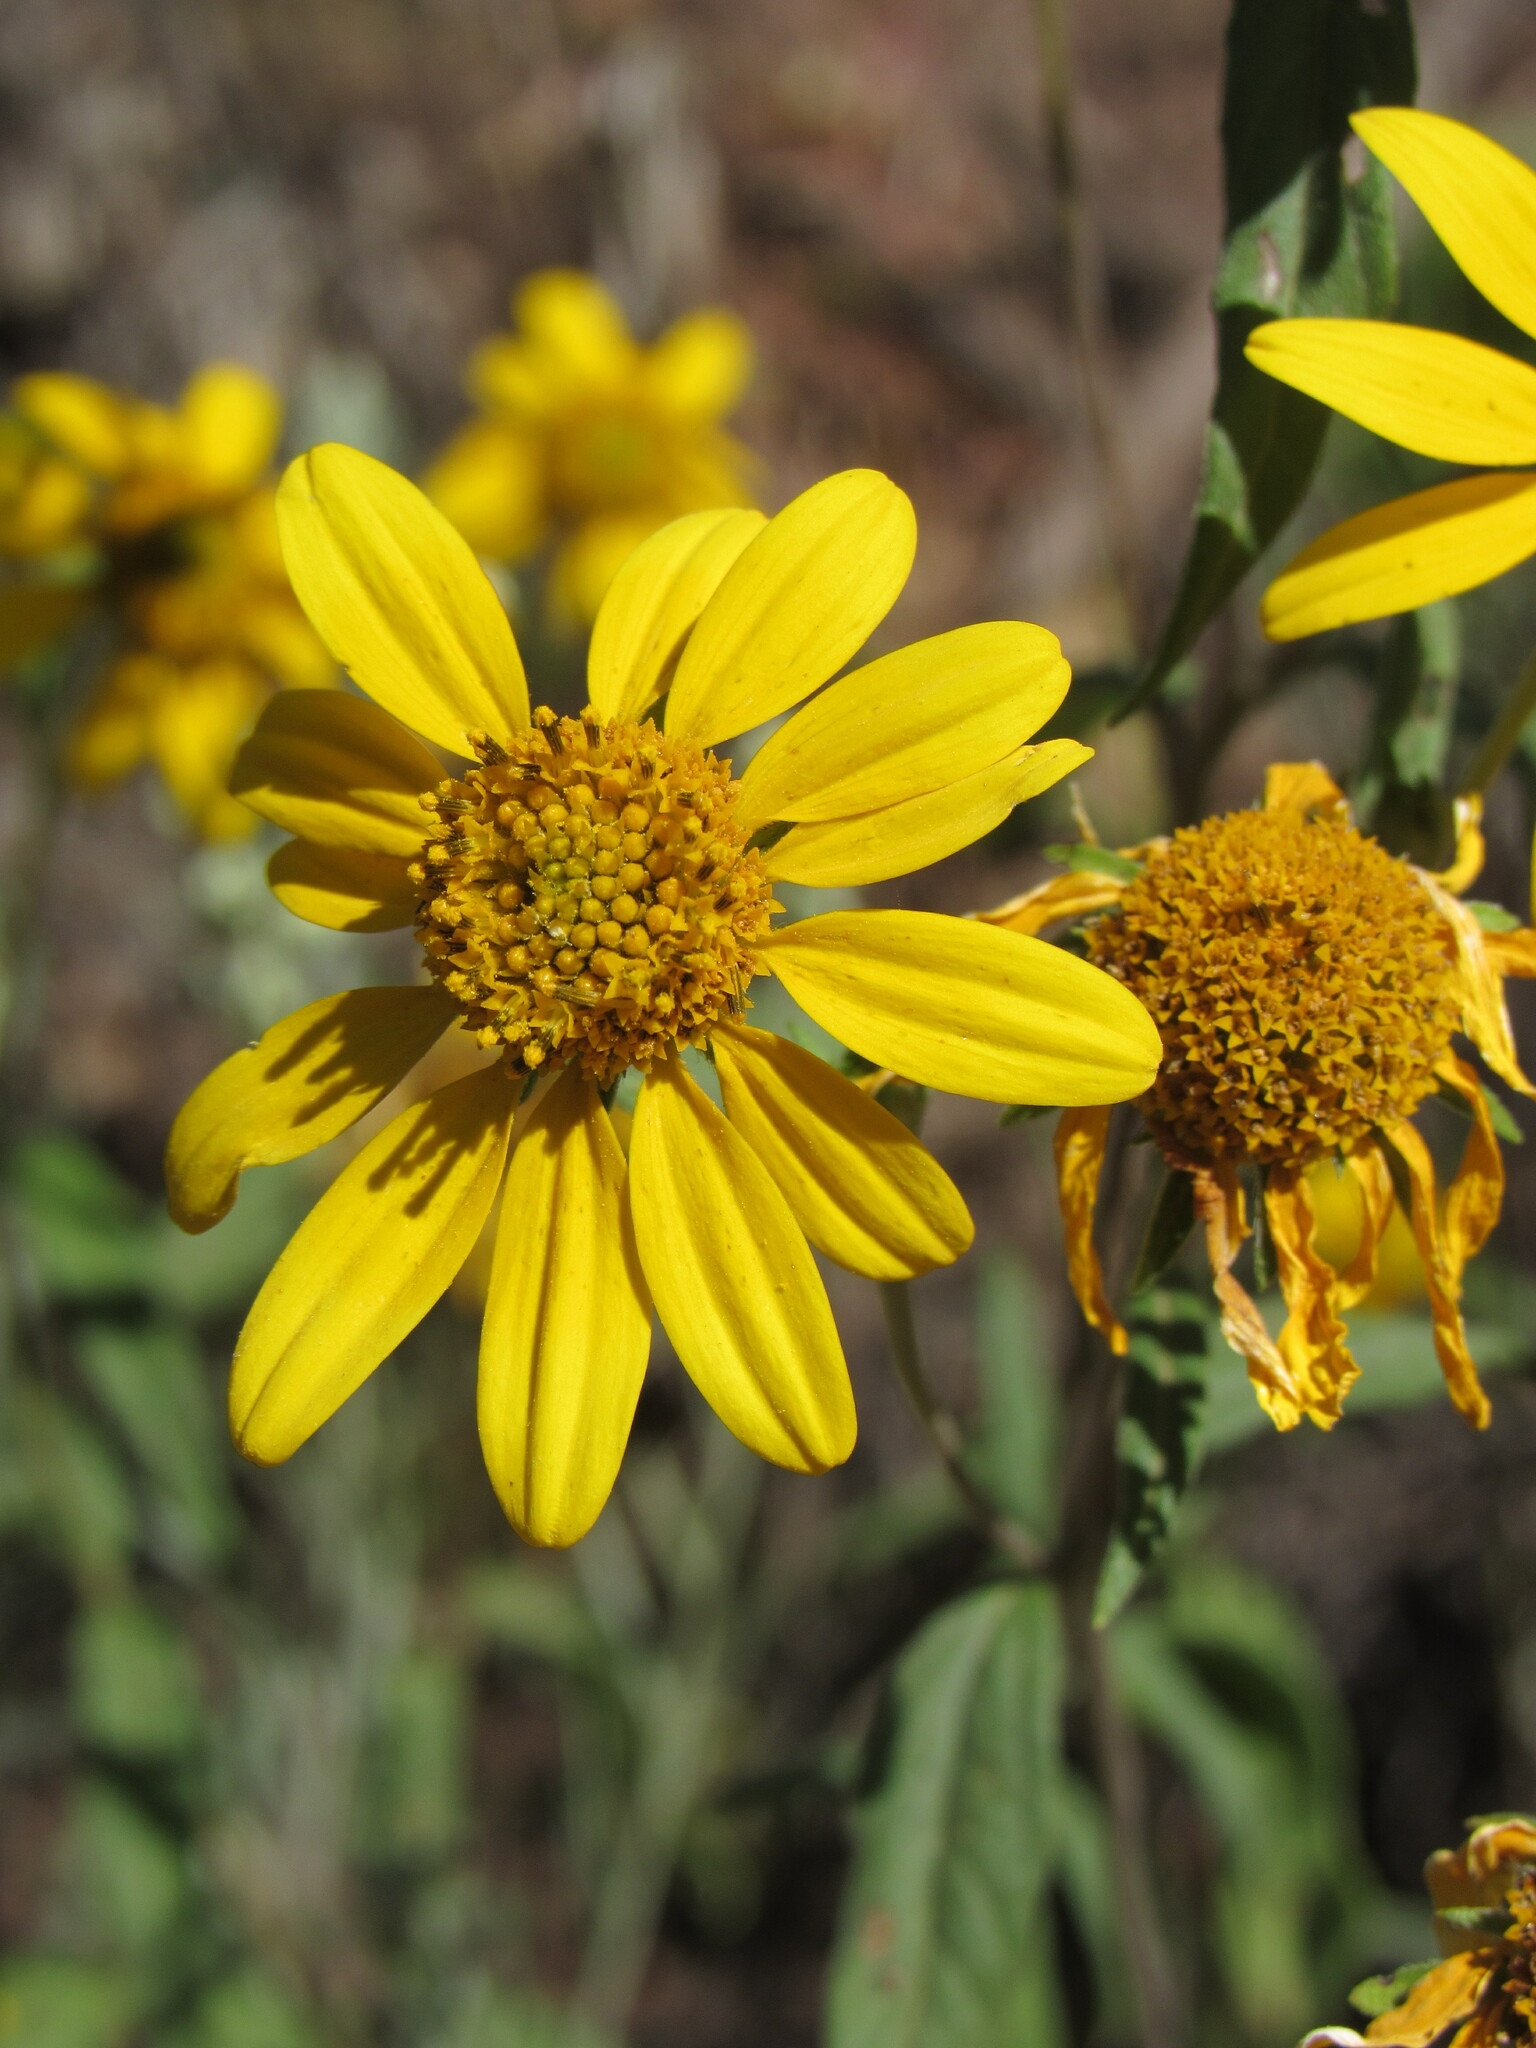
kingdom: Plantae
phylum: Tracheophyta
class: Magnoliopsida
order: Asterales
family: Asteraceae
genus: Heliomeris
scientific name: Heliomeris multiflora
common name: Showy goldeneye
